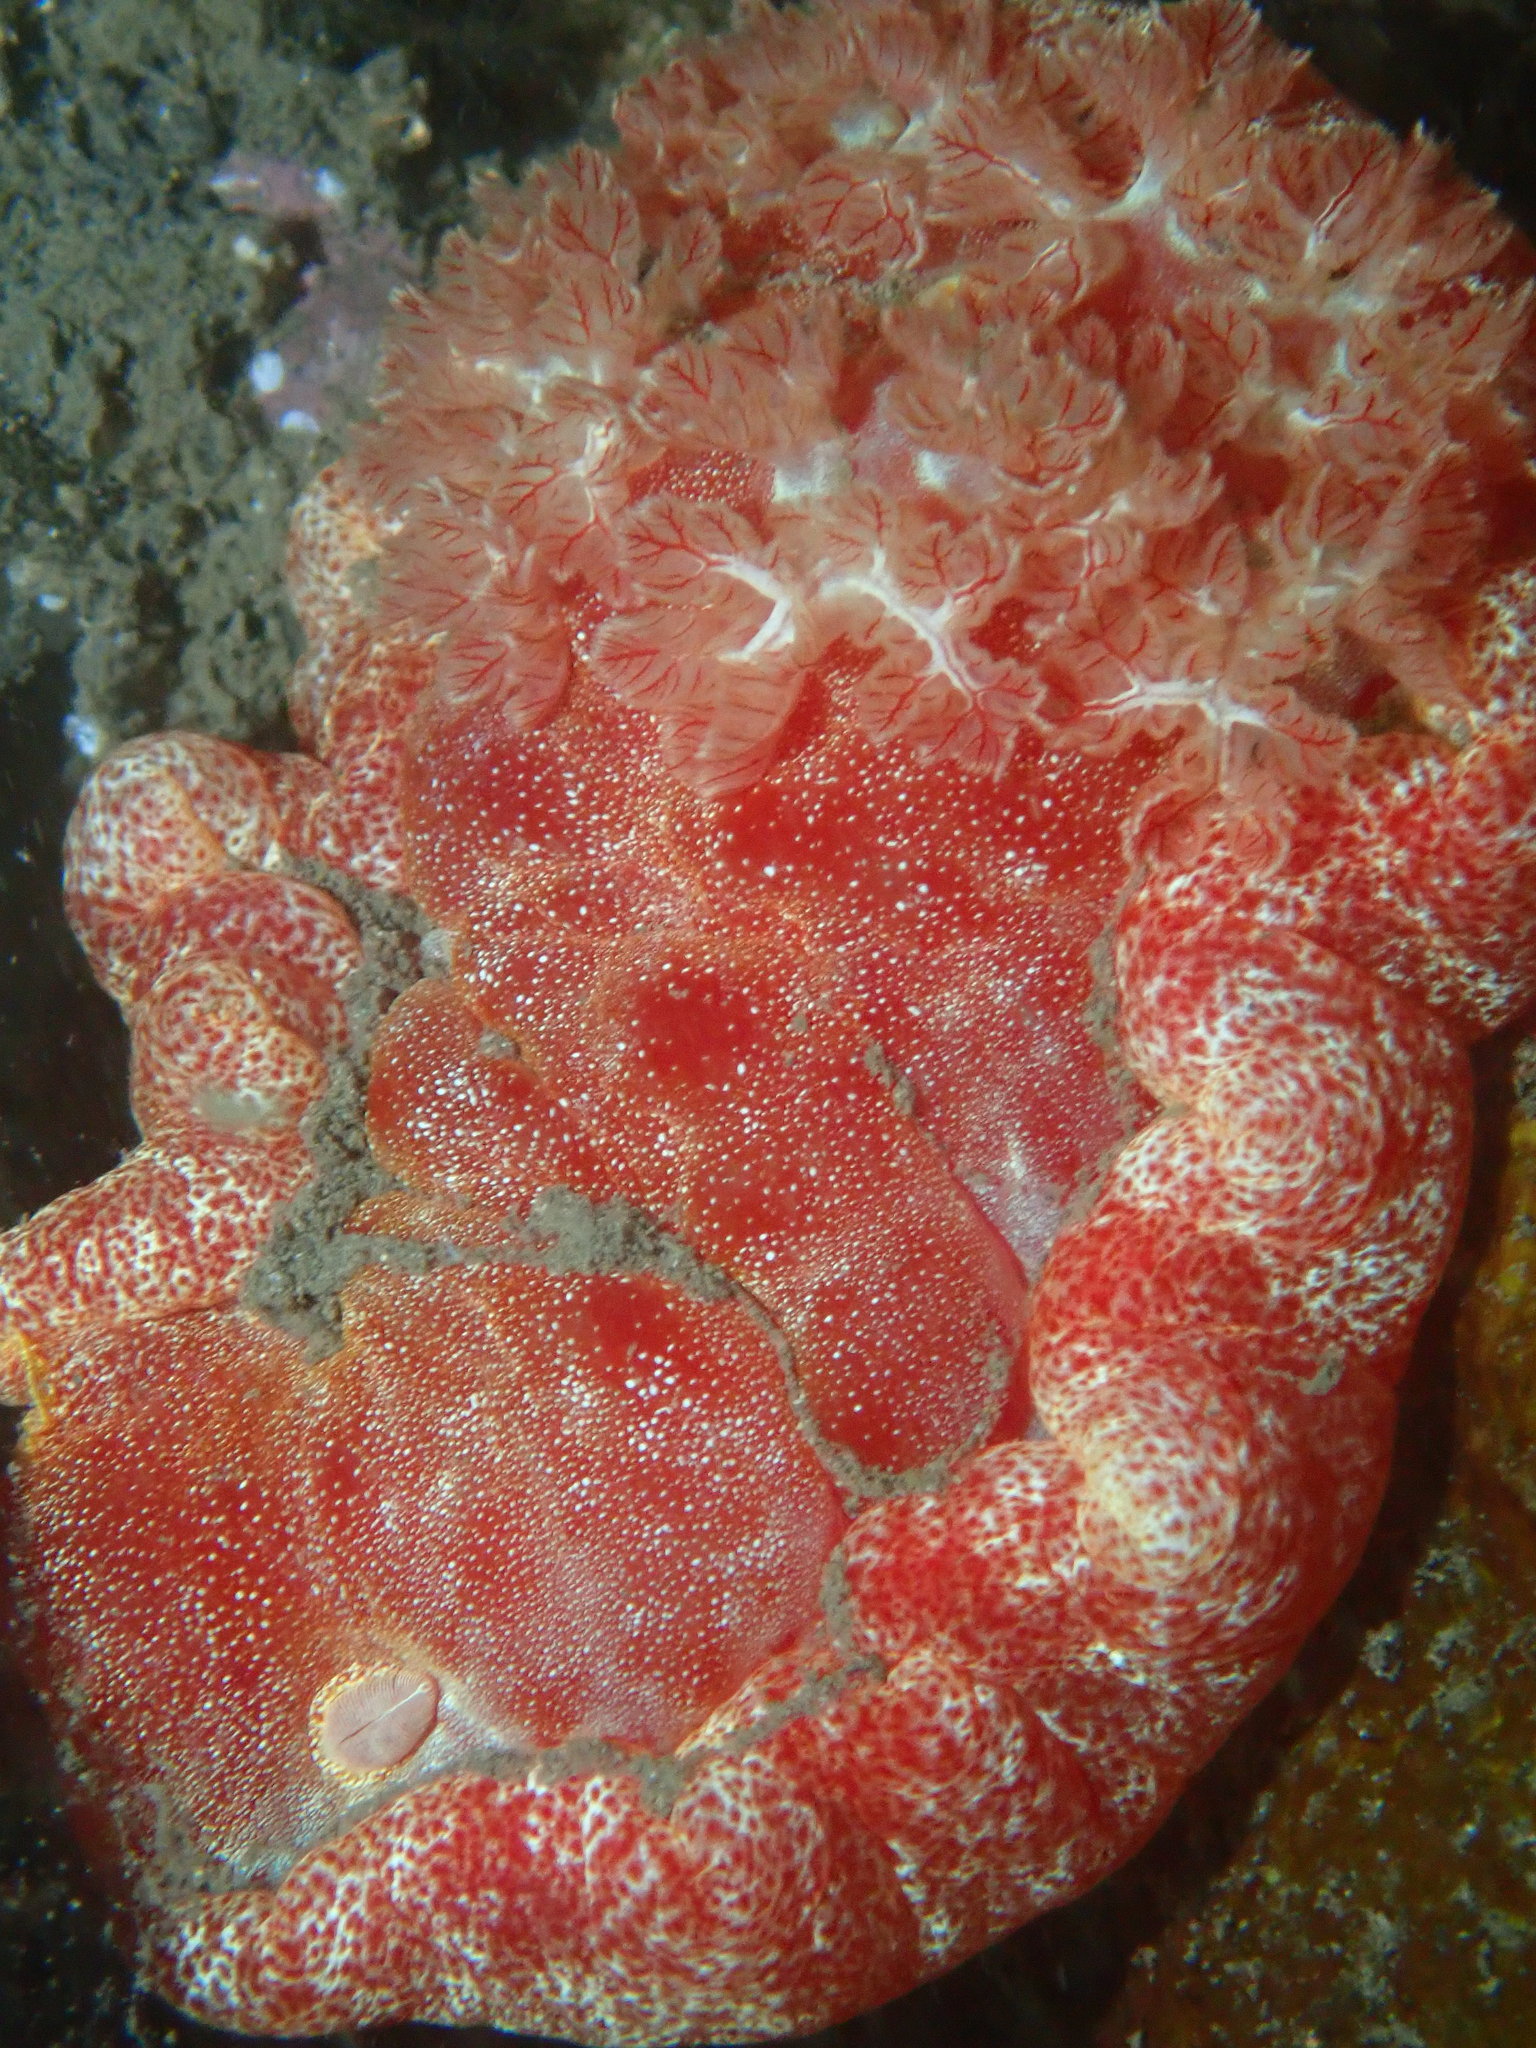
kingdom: Animalia
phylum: Mollusca
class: Gastropoda
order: Nudibranchia
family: Hexabranchidae
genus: Hexabranchus
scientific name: Hexabranchus lacer
